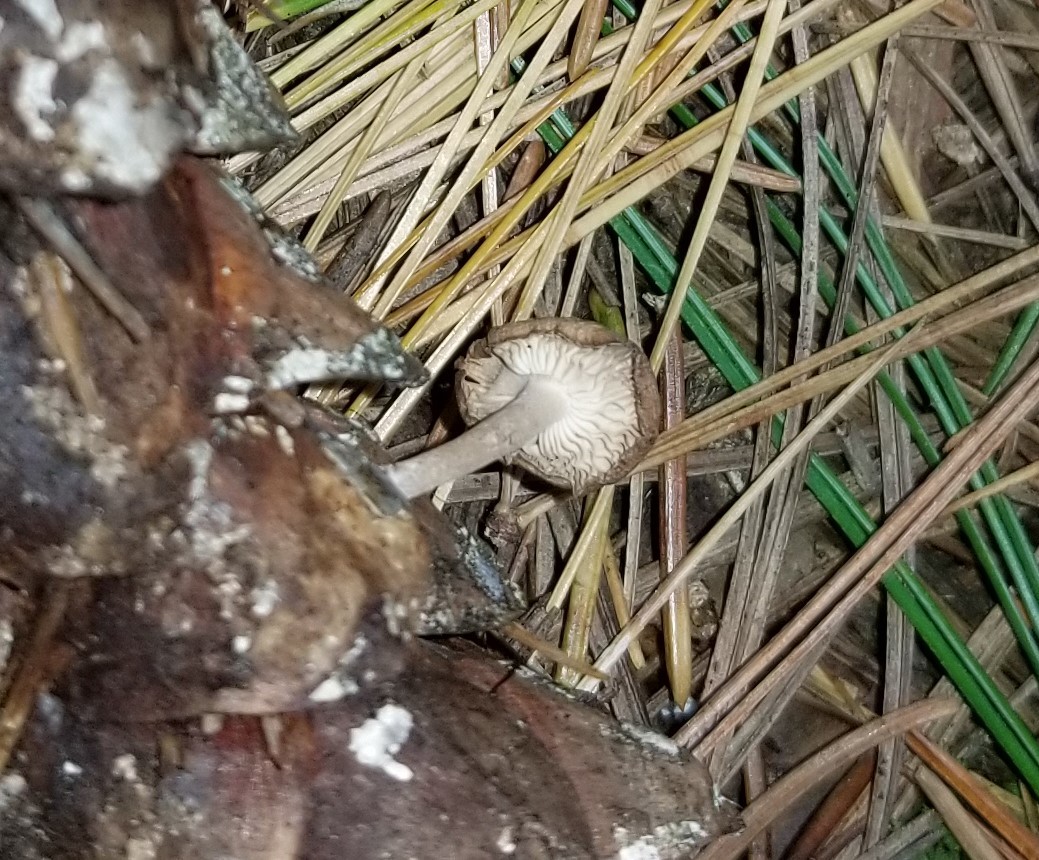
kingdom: Fungi
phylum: Basidiomycota
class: Agaricomycetes
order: Agaricales
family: Marasmiaceae
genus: Baeospora
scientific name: Baeospora myosura
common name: Conifercone cap
